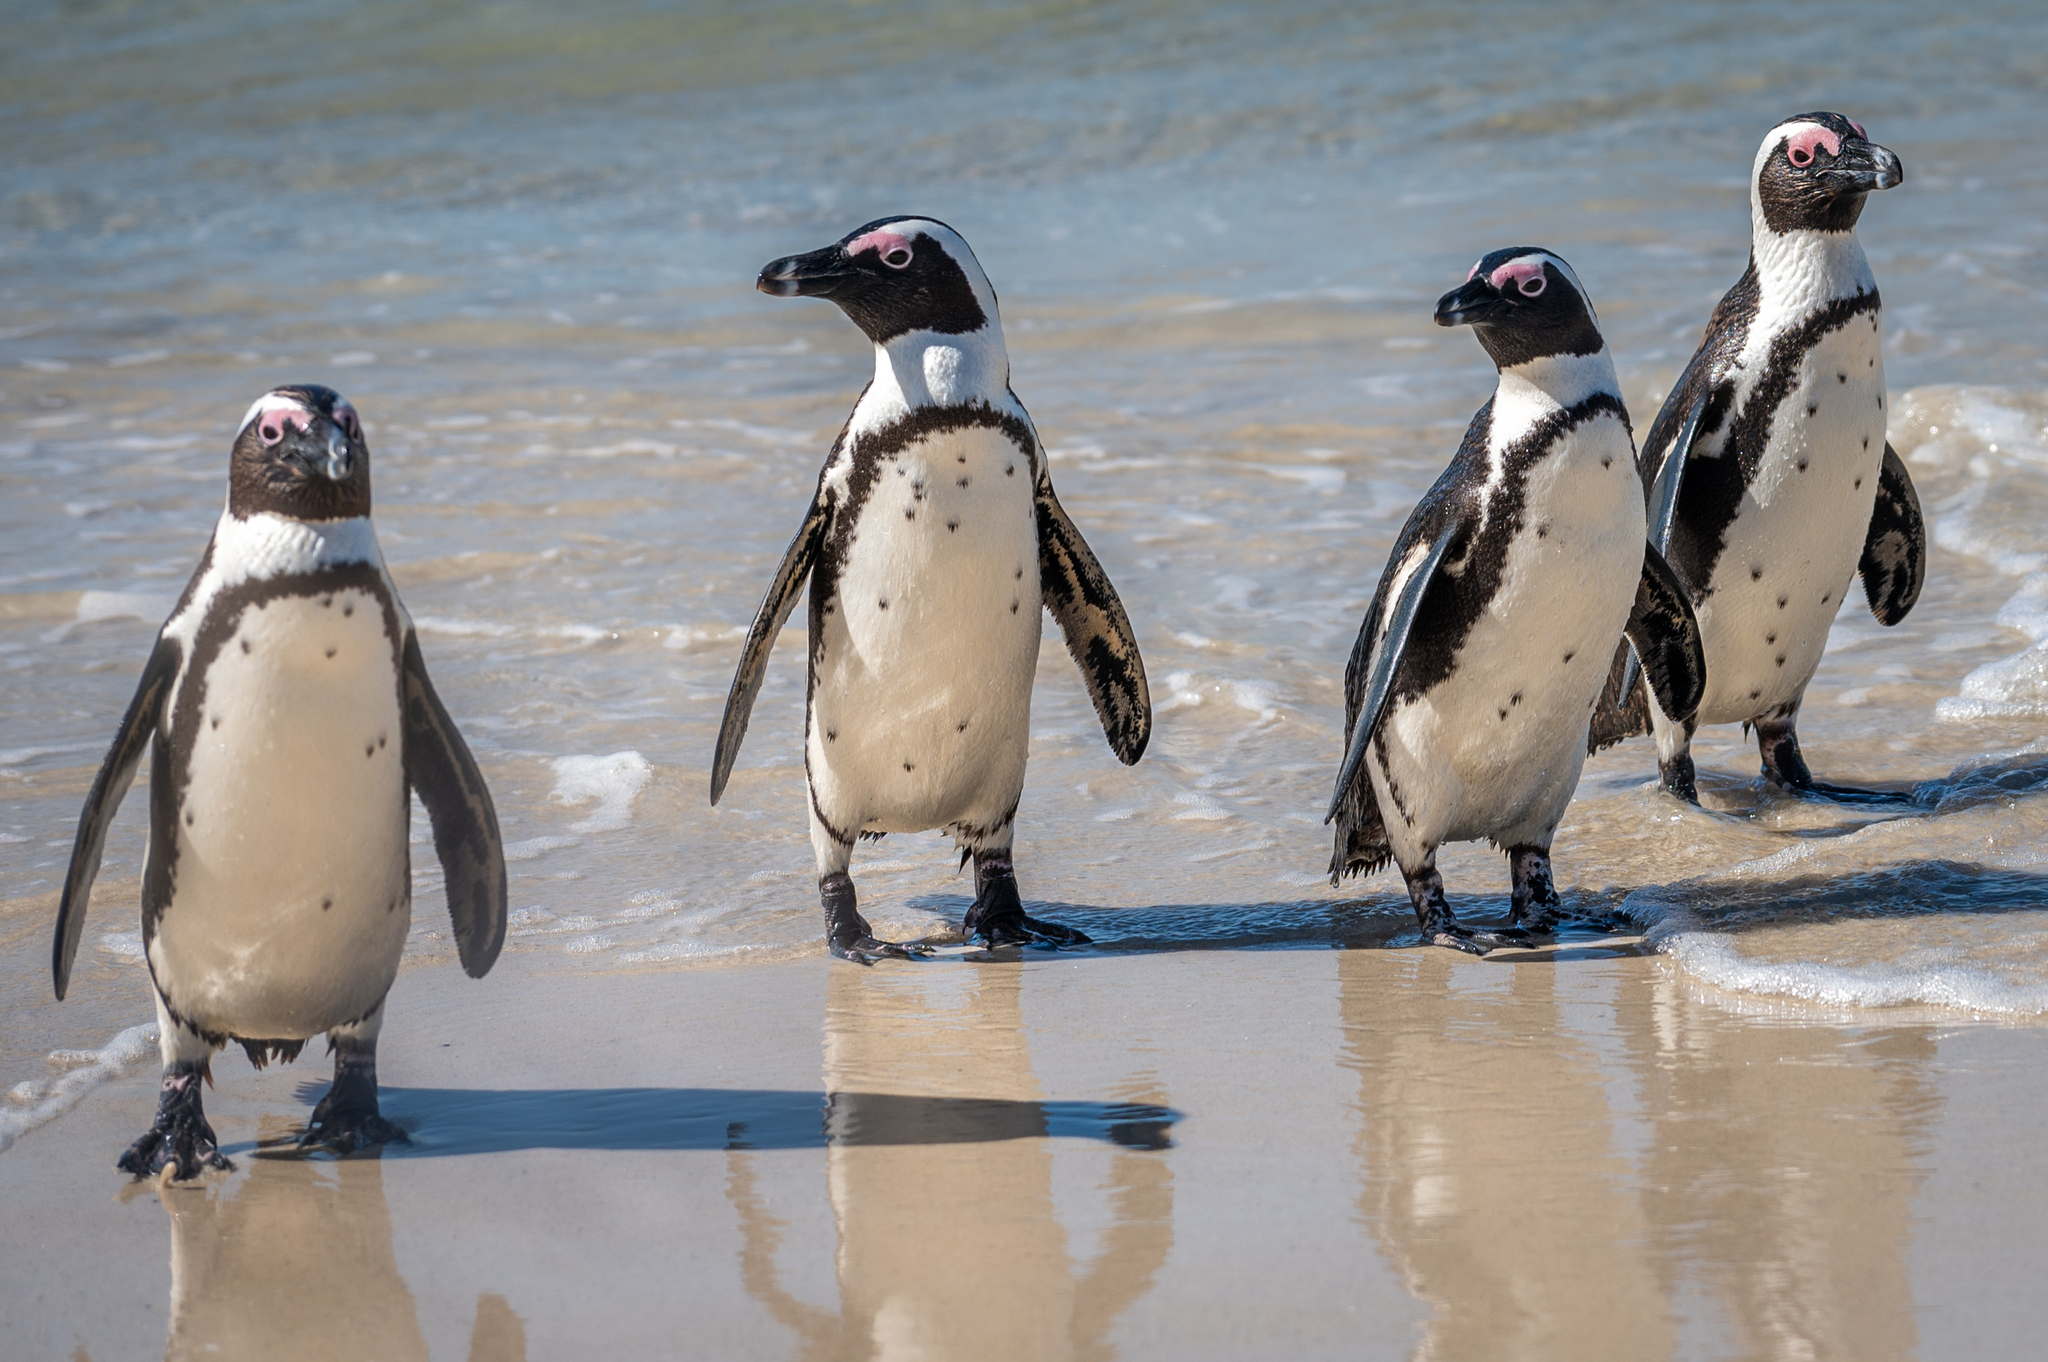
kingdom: Animalia
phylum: Chordata
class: Aves
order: Sphenisciformes
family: Spheniscidae
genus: Spheniscus
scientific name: Spheniscus demersus
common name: African penguin
